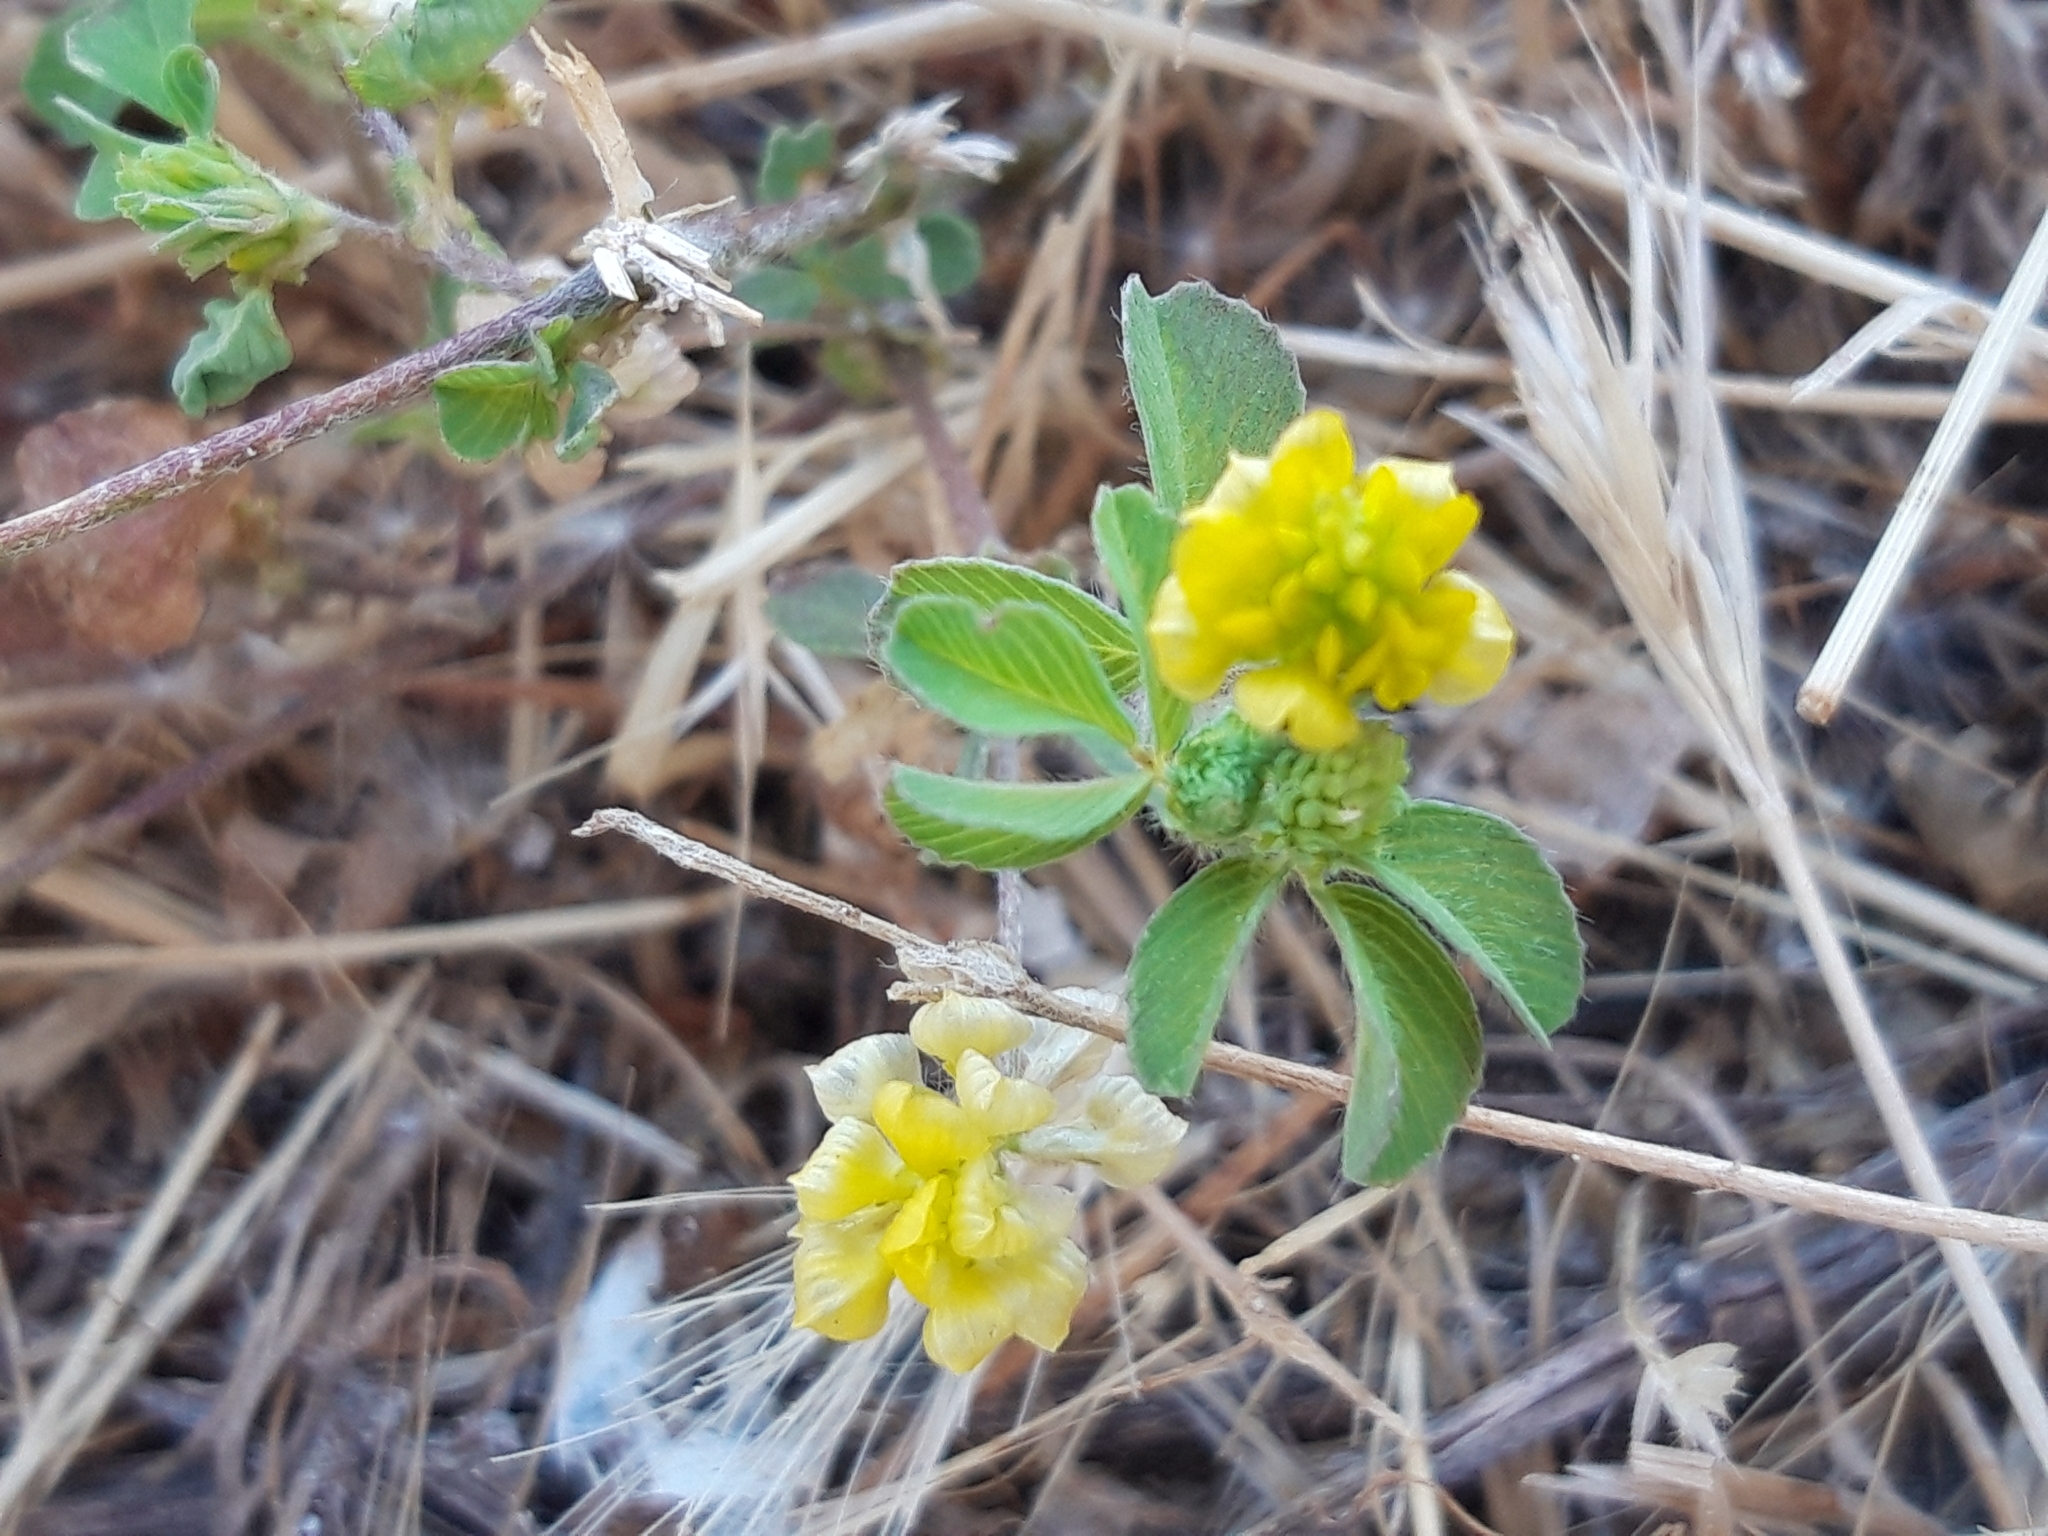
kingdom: Plantae
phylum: Tracheophyta
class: Magnoliopsida
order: Fabales
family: Fabaceae
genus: Trifolium
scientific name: Trifolium campestre
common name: Field clover
